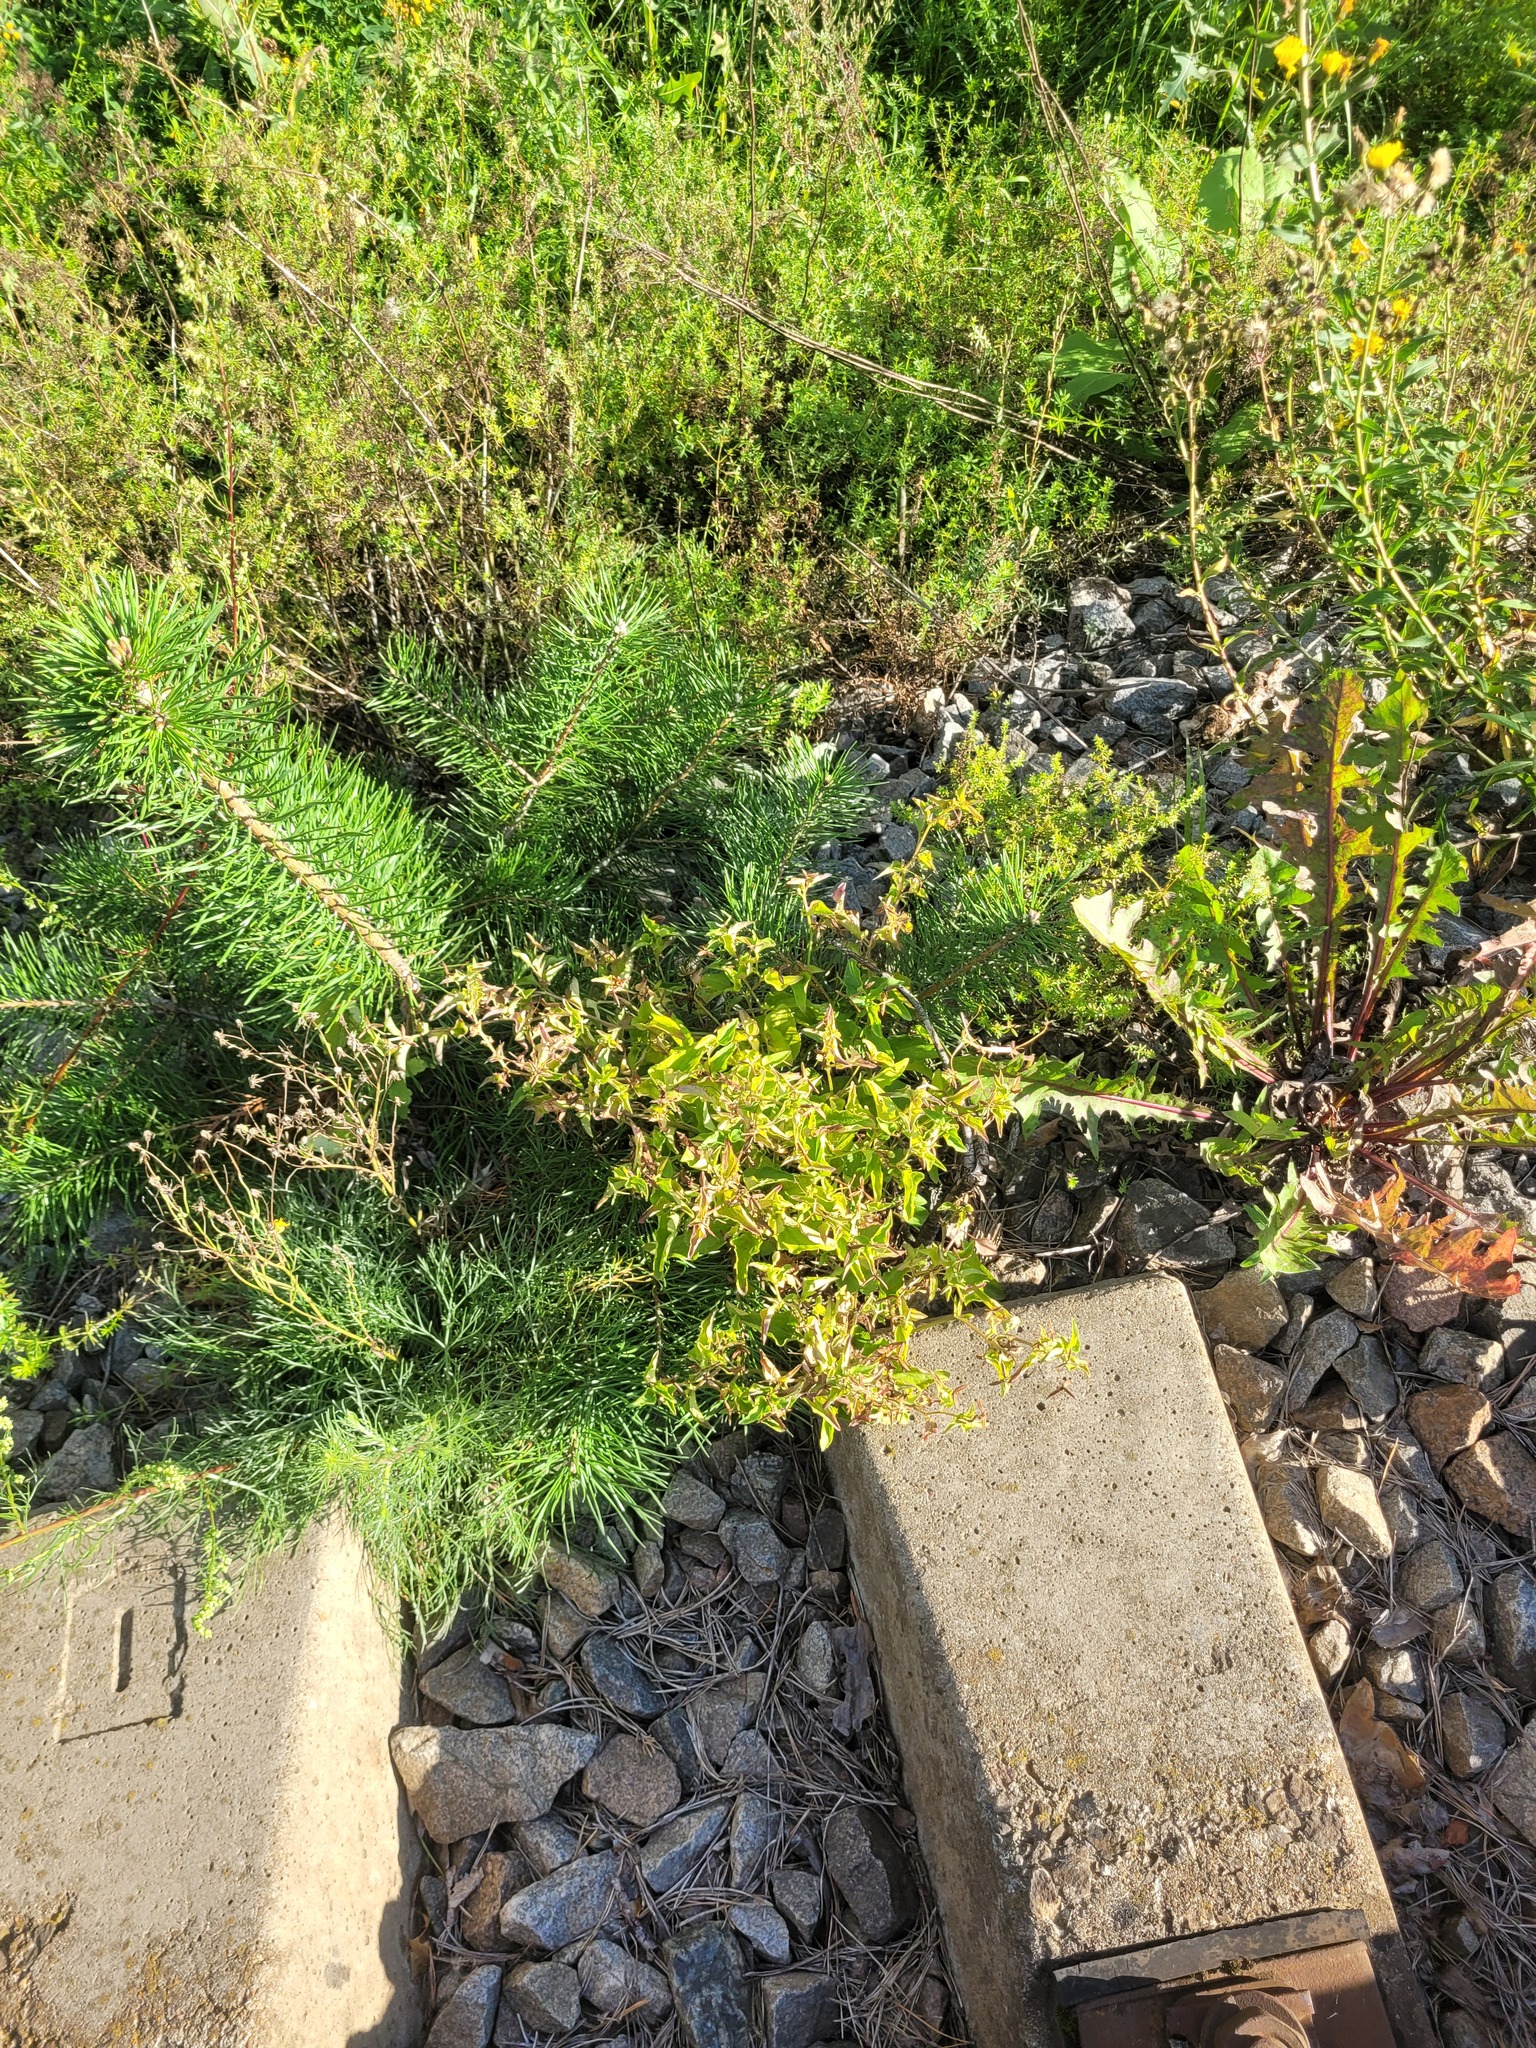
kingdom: Plantae
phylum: Tracheophyta
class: Magnoliopsida
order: Malpighiales
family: Violaceae
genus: Viola
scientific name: Viola canina
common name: Heath dog-violet
